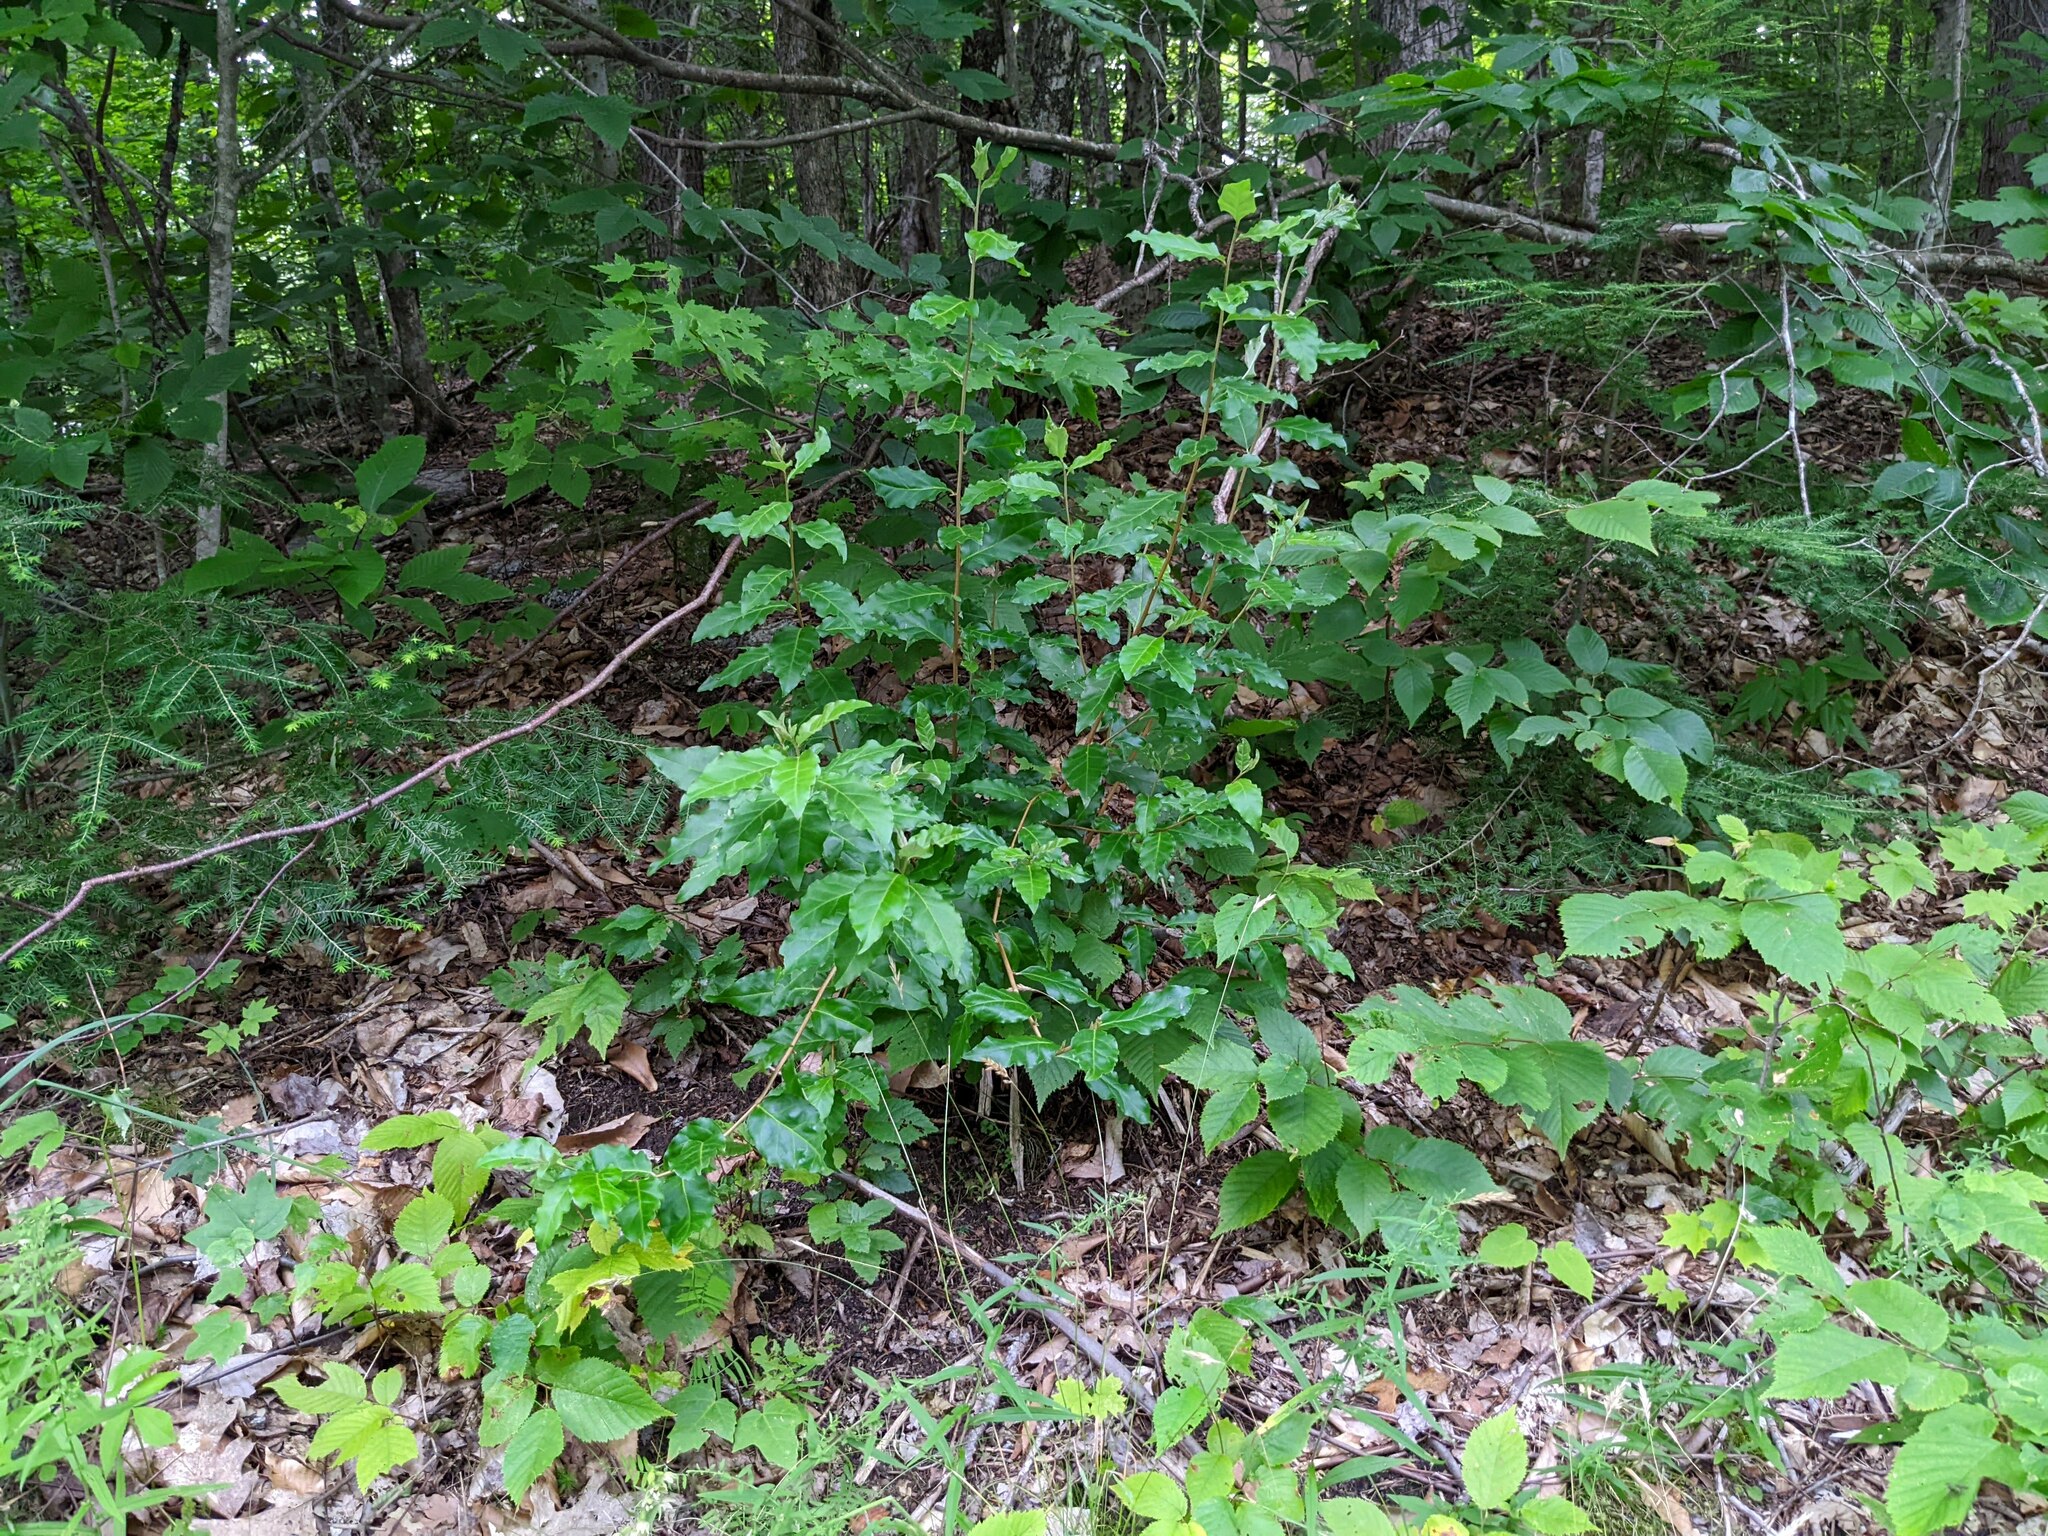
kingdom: Plantae
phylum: Tracheophyta
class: Magnoliopsida
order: Rosales
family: Elaeagnaceae
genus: Elaeagnus
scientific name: Elaeagnus umbellata
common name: Autumn olive
